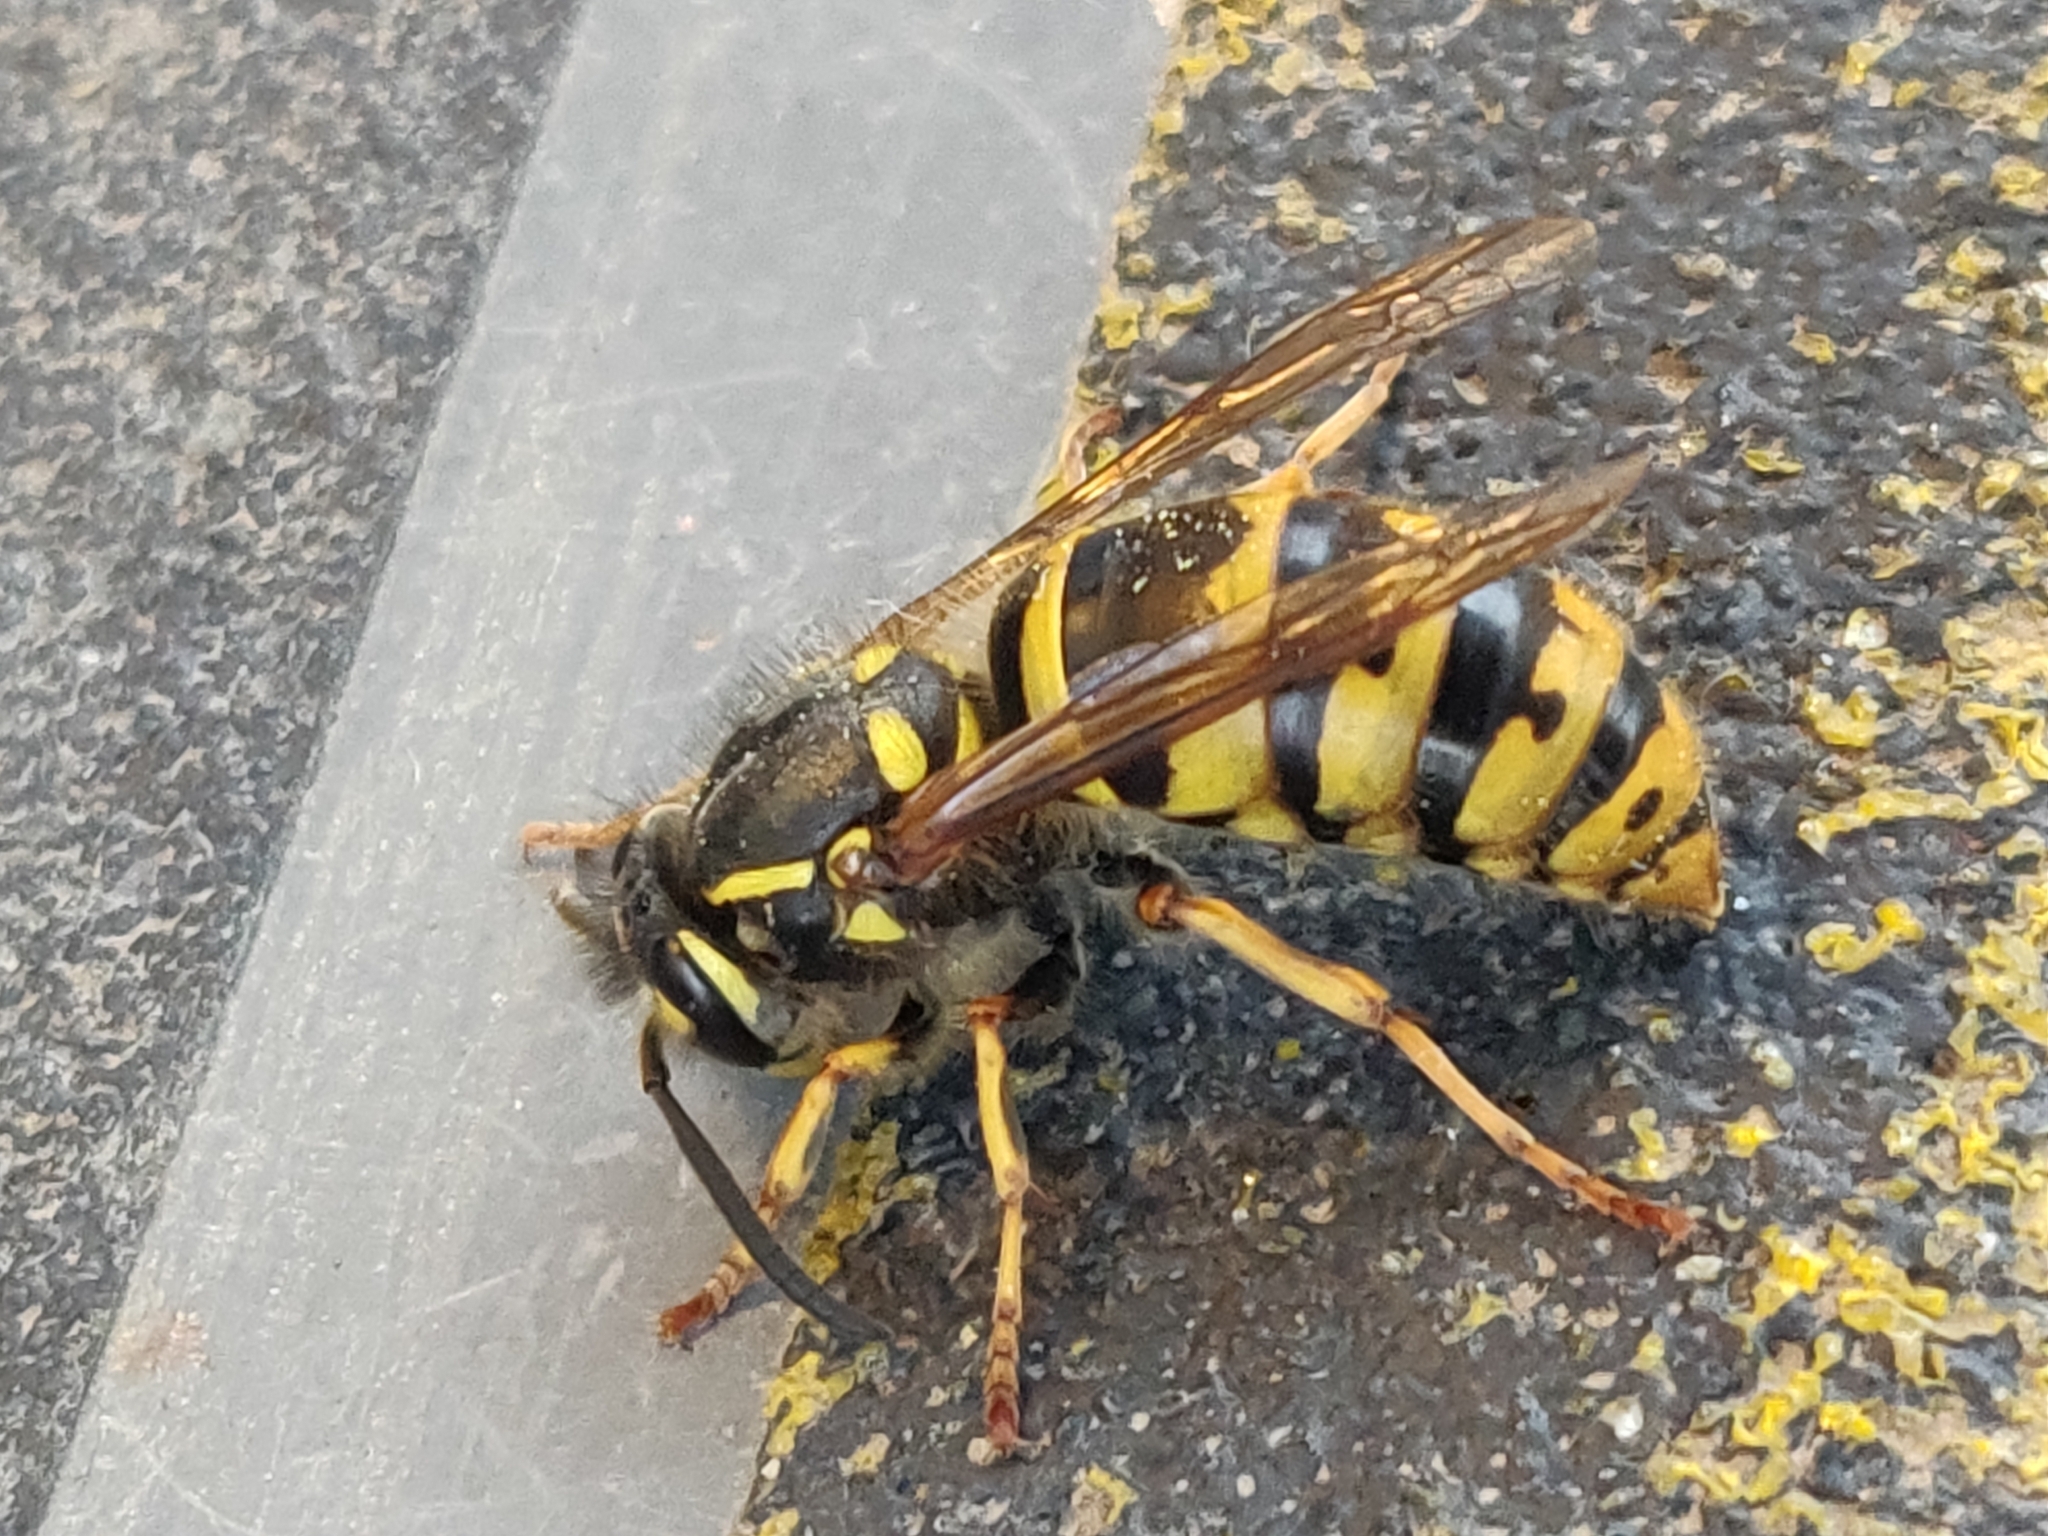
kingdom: Animalia
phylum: Arthropoda
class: Insecta
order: Hymenoptera
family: Vespidae
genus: Vespula
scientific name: Vespula vulgaris
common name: Common wasp
